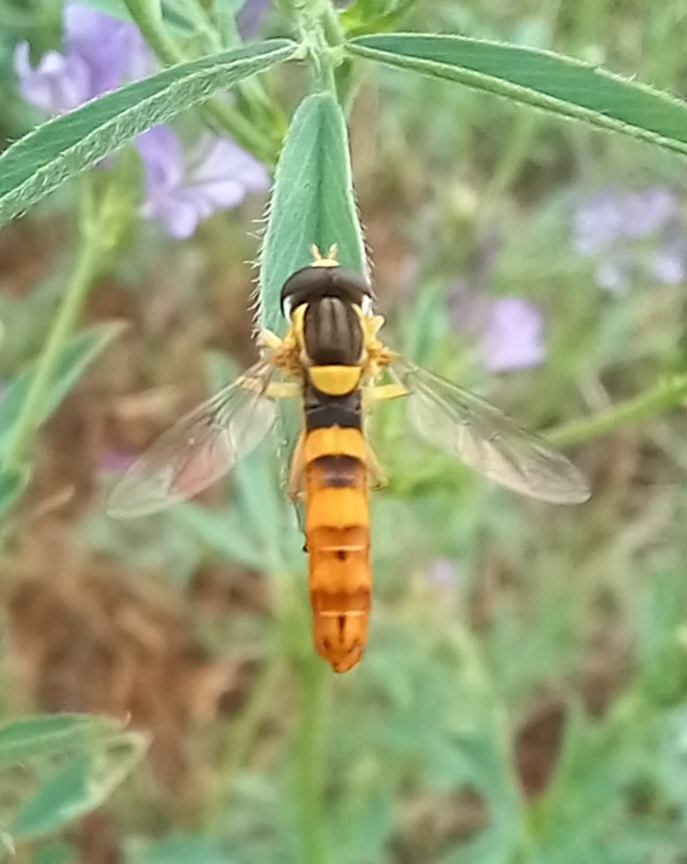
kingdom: Animalia
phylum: Arthropoda
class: Insecta
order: Diptera
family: Syrphidae
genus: Sphaerophoria
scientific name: Sphaerophoria scripta
